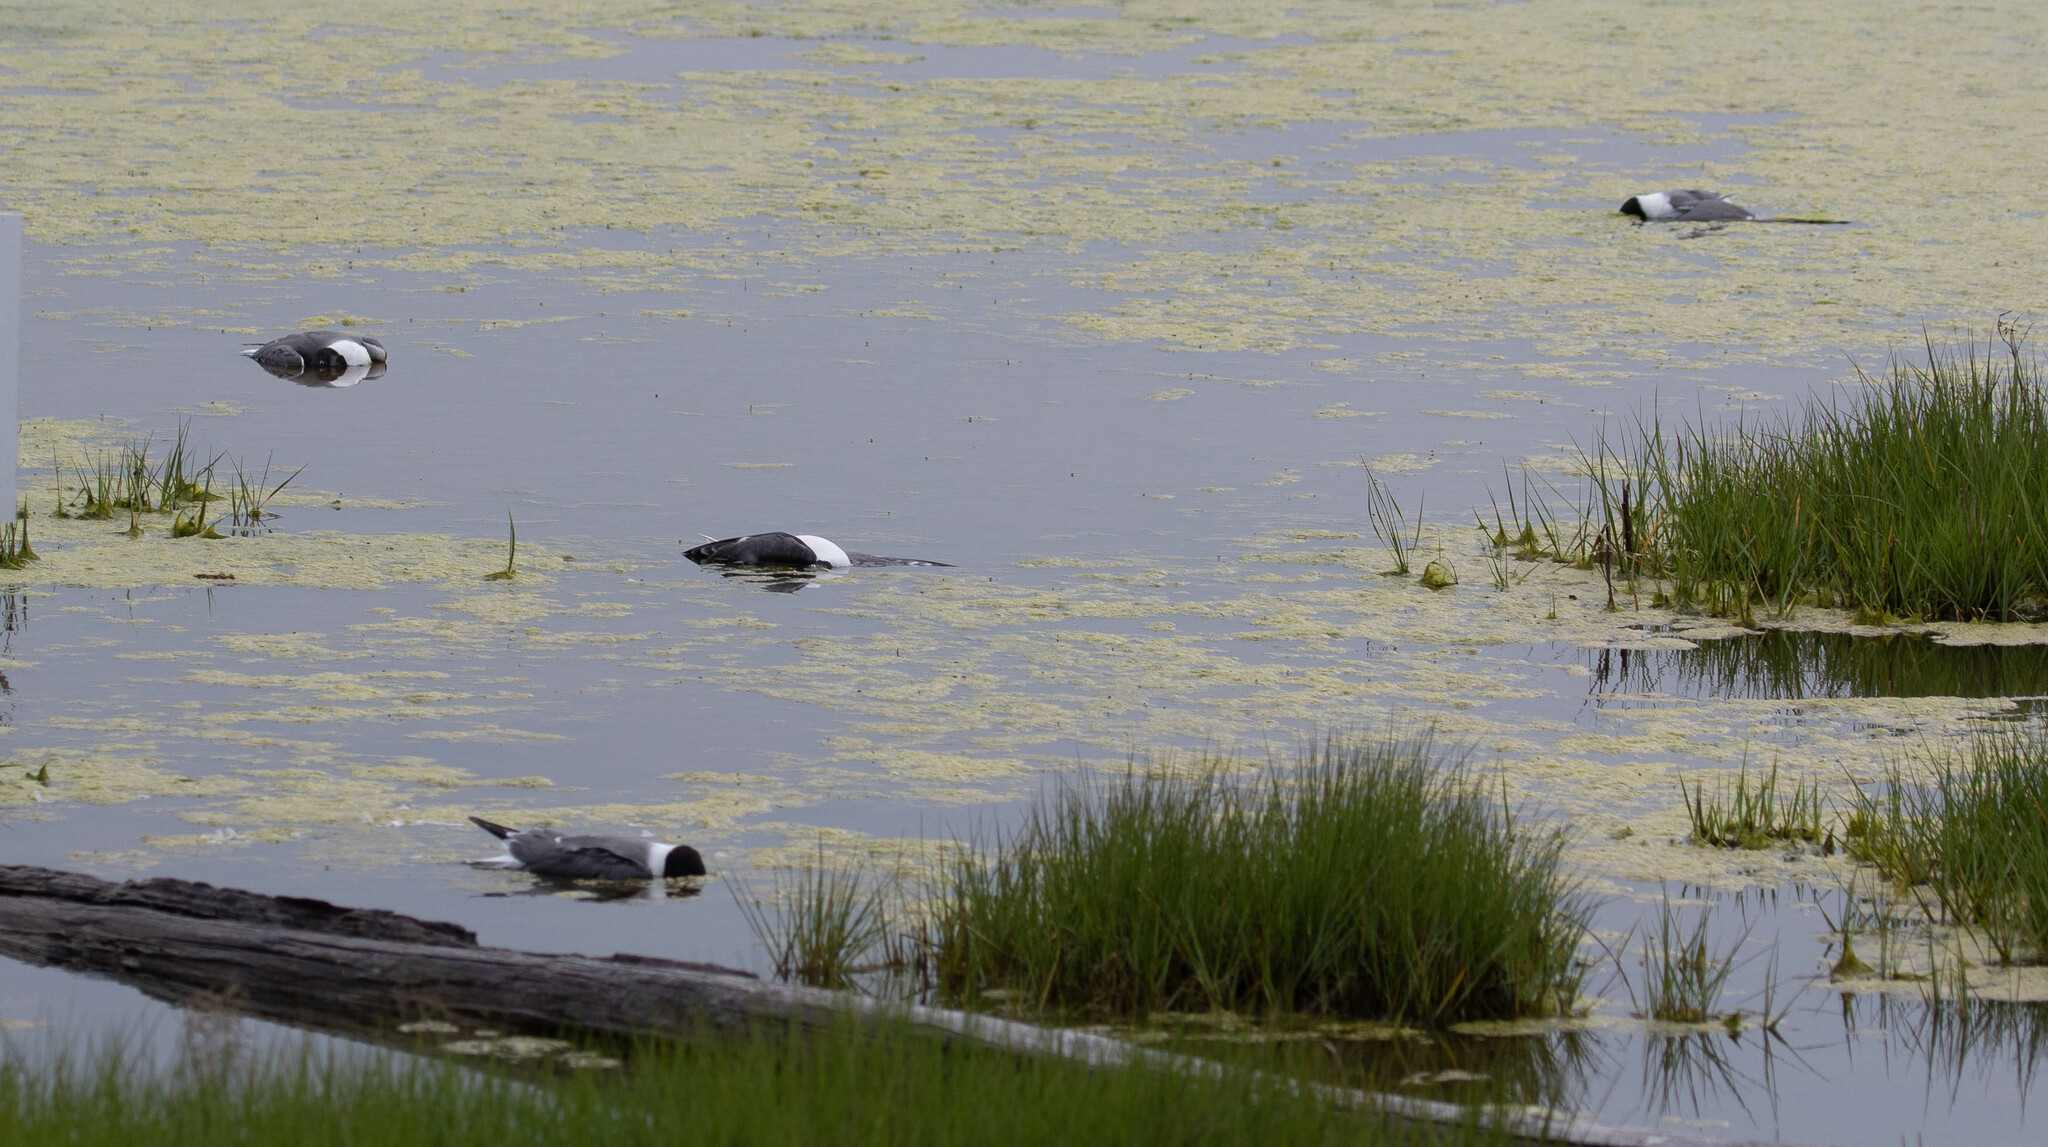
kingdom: Animalia
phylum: Chordata
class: Aves
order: Charadriiformes
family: Laridae
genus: Leucophaeus
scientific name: Leucophaeus atricilla
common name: Laughing gull
